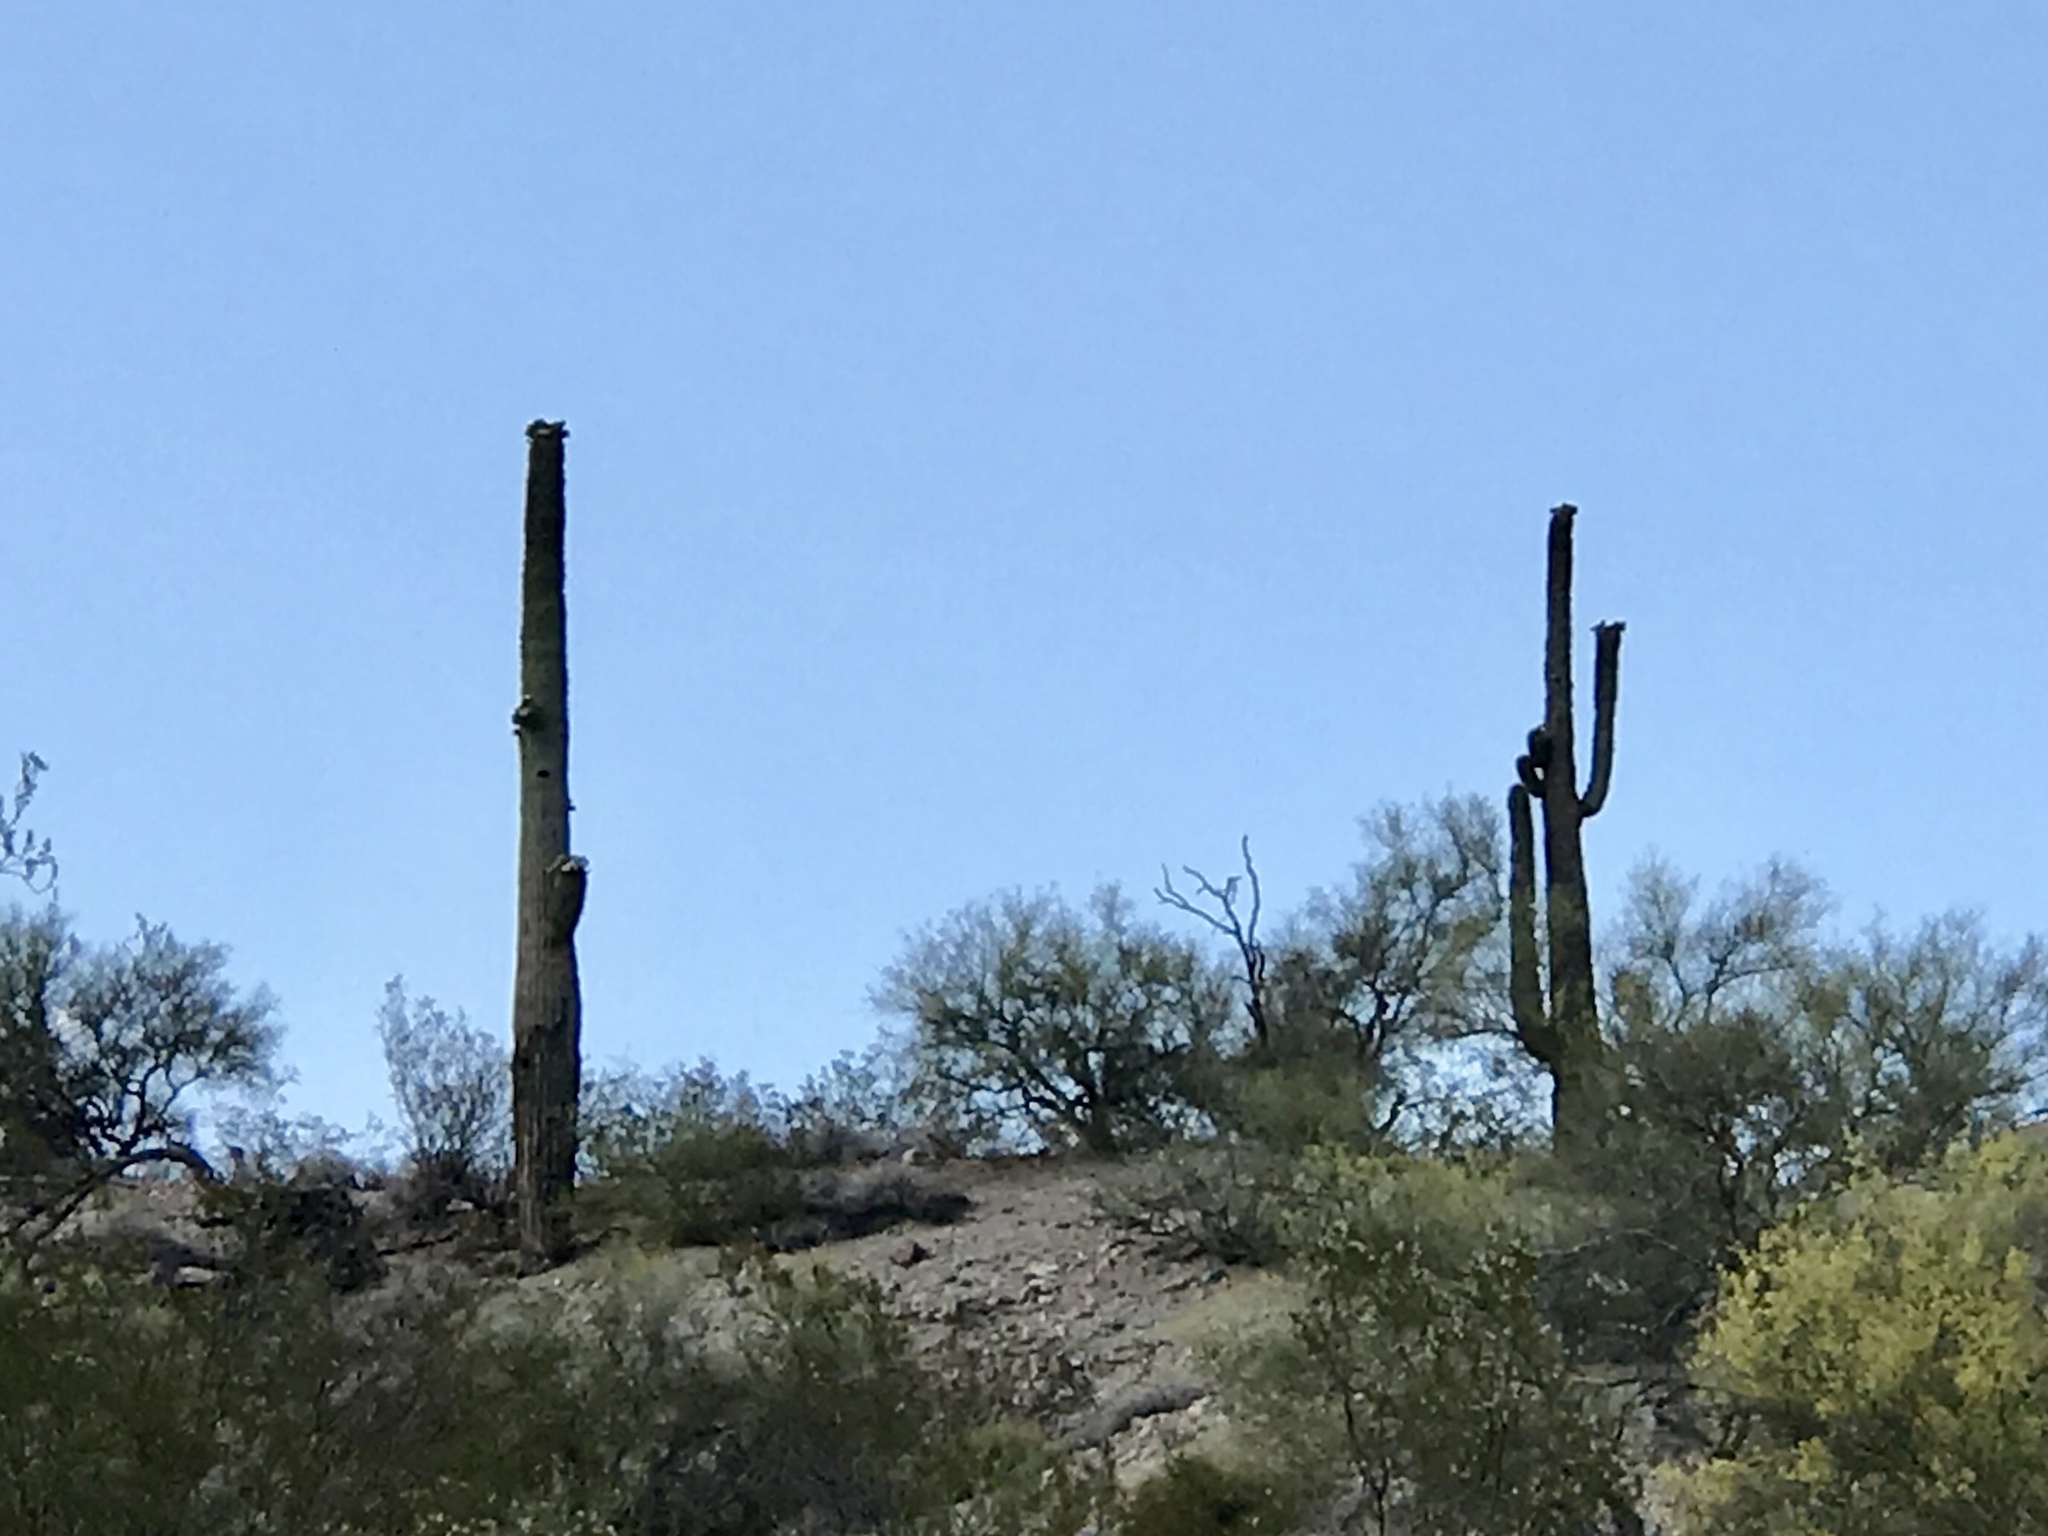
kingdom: Plantae
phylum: Tracheophyta
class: Magnoliopsida
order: Caryophyllales
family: Cactaceae
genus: Carnegiea
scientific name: Carnegiea gigantea
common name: Saguaro
